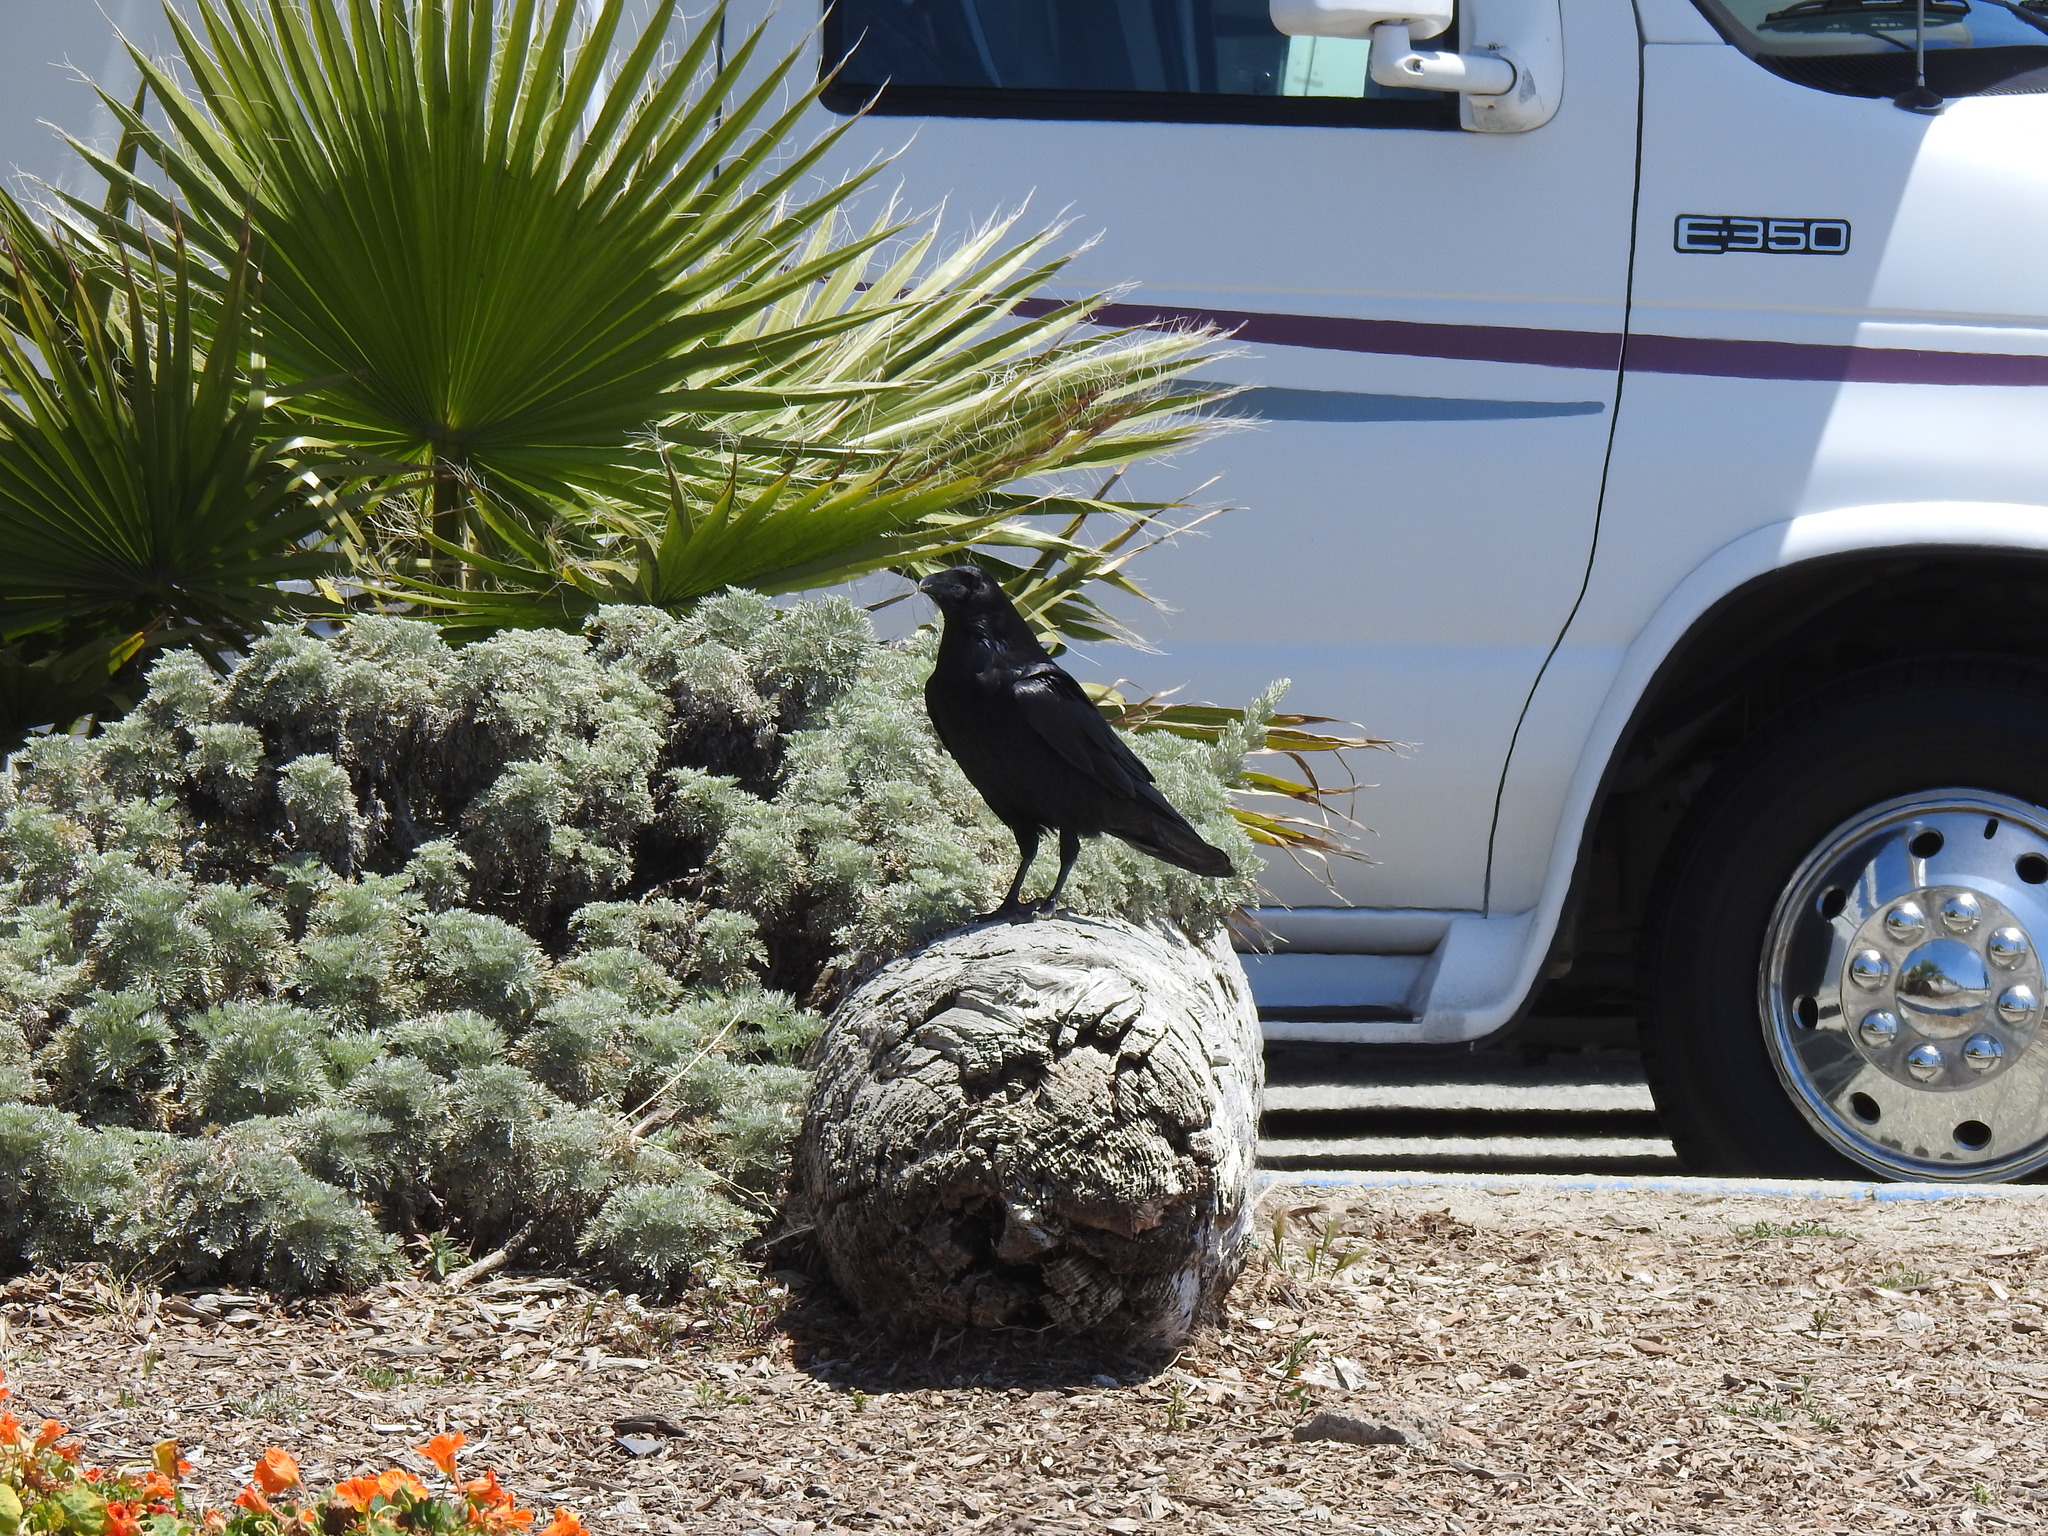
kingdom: Animalia
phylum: Chordata
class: Aves
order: Passeriformes
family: Corvidae
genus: Corvus
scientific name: Corvus corax
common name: Common raven
